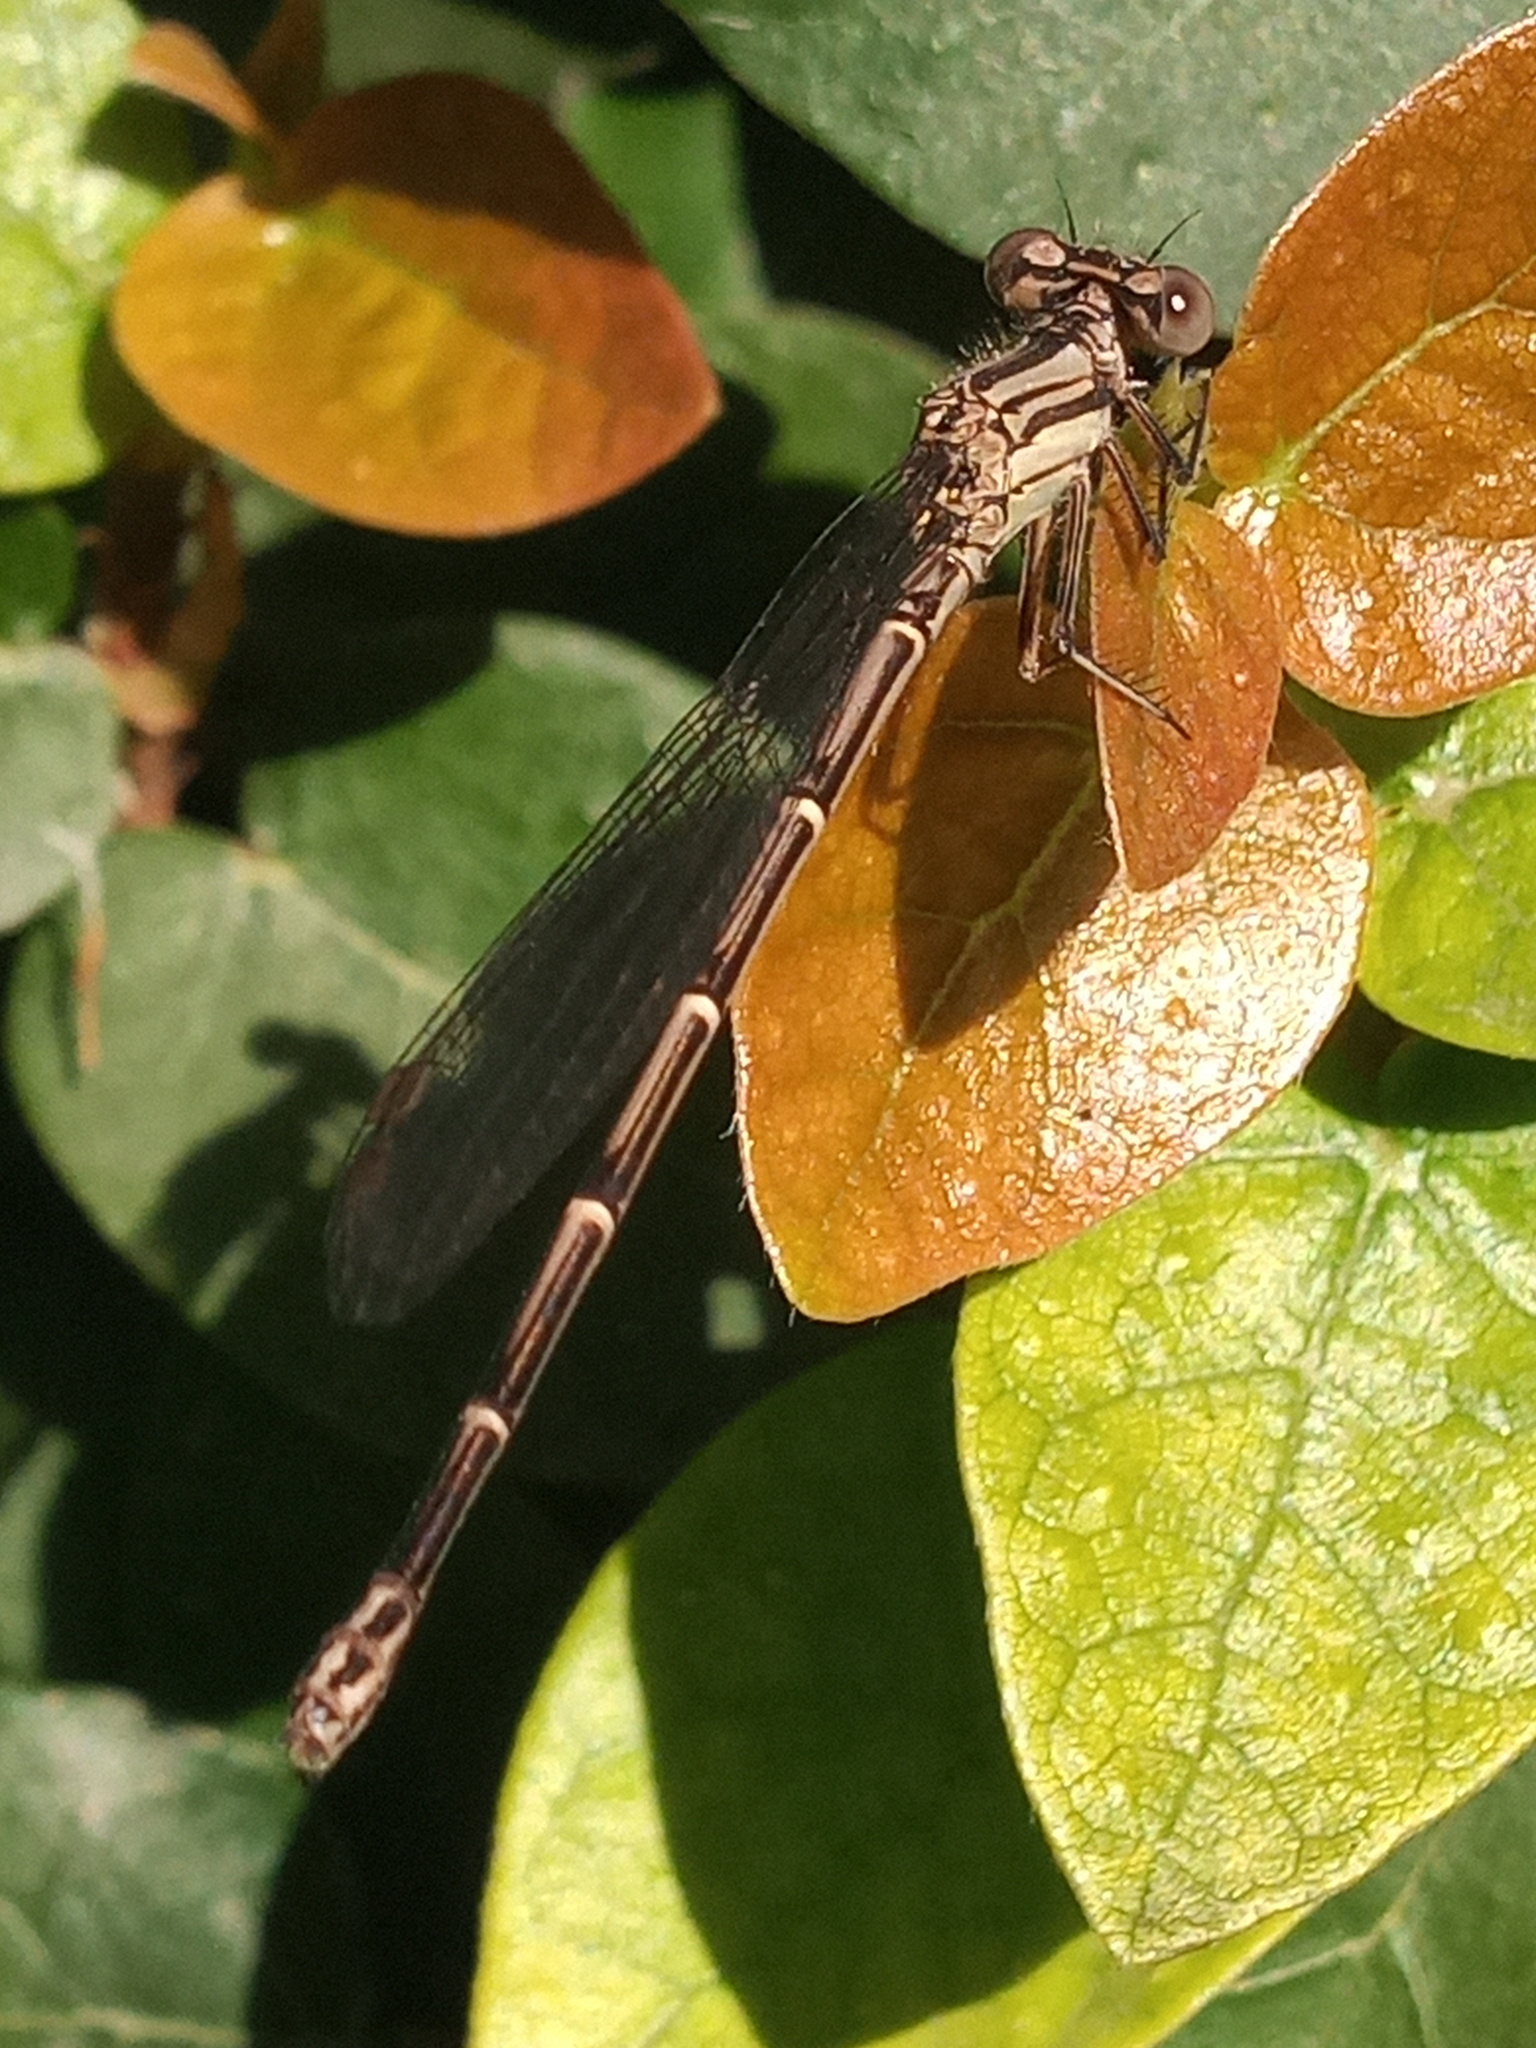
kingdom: Animalia
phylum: Arthropoda
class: Insecta
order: Odonata
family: Coenagrionidae
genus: Argia
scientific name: Argia translata
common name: Dusky dancer
